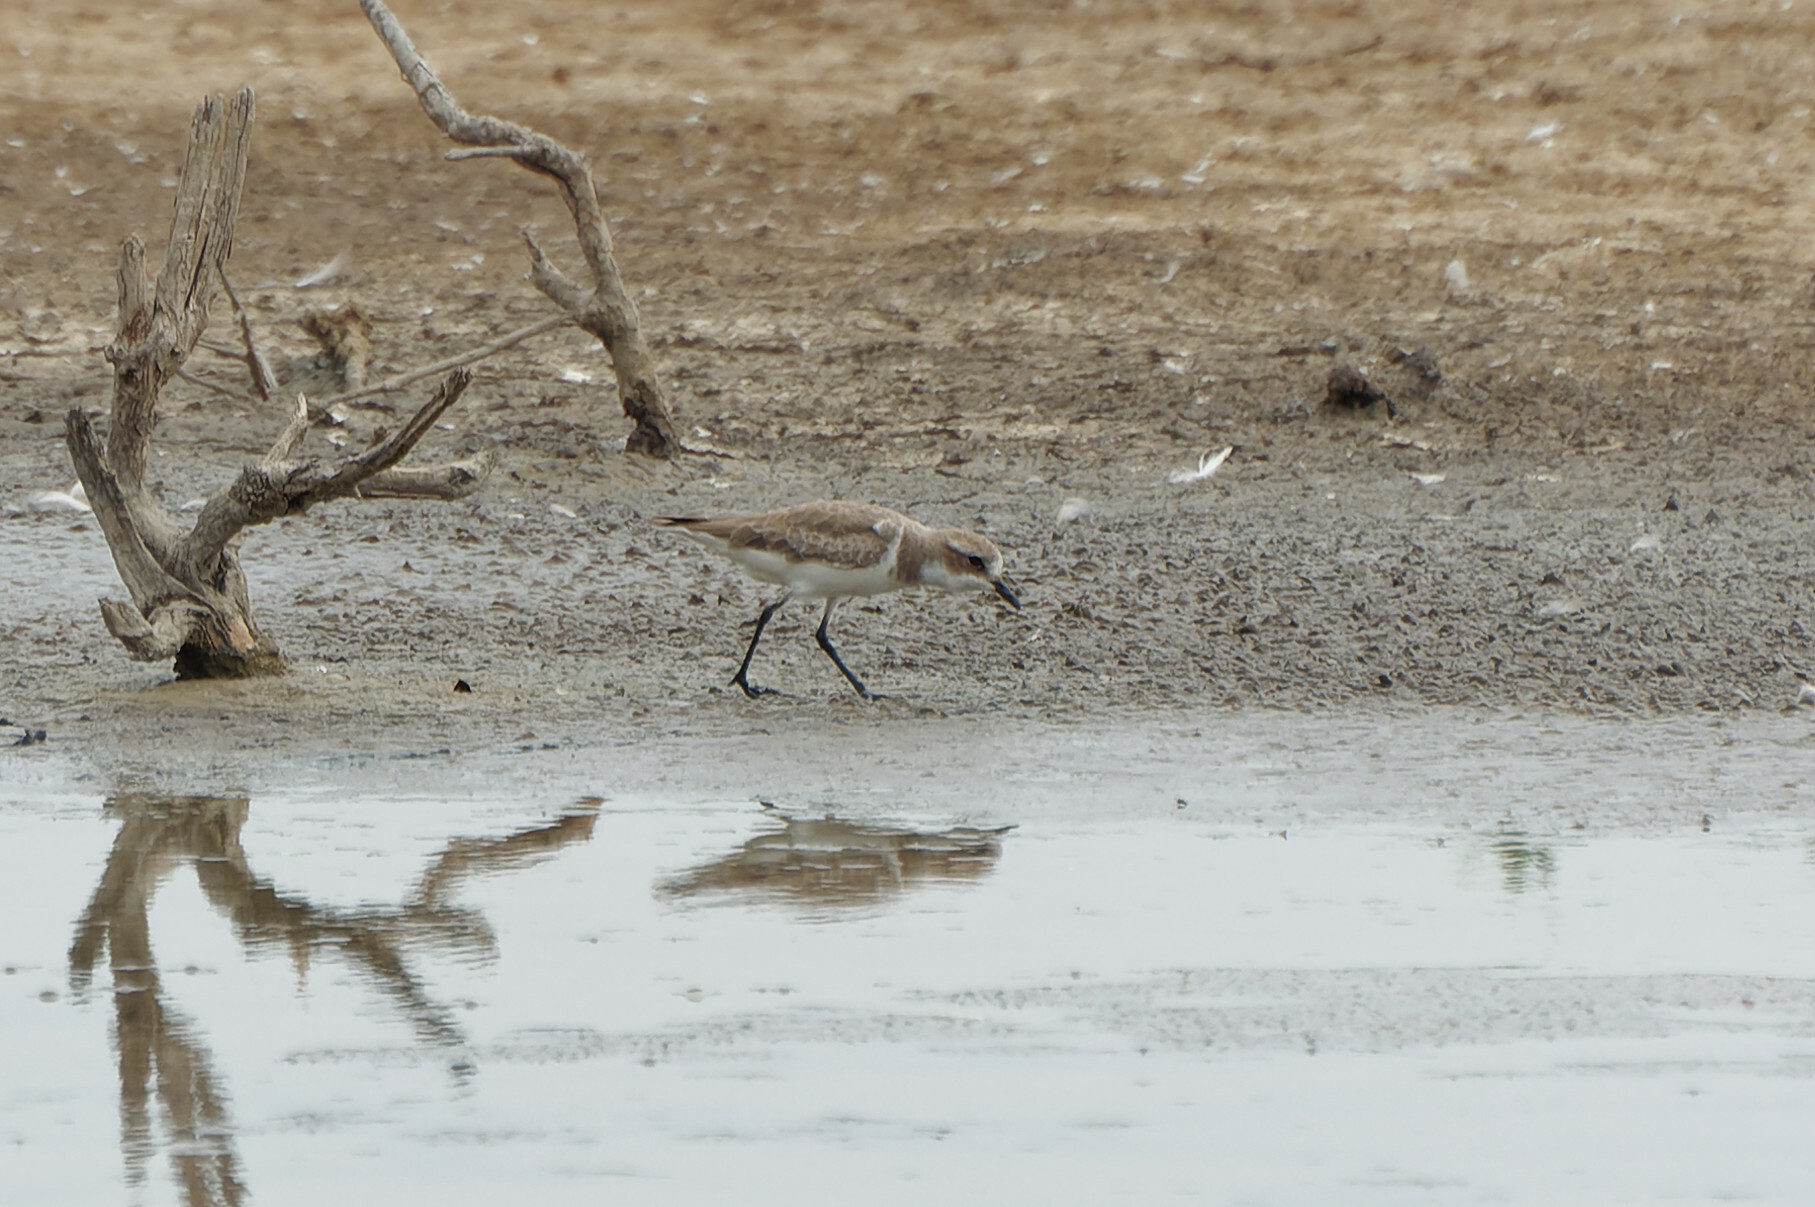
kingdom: Animalia
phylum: Chordata
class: Aves
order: Charadriiformes
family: Charadriidae
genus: Anarhynchus
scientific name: Anarhynchus
